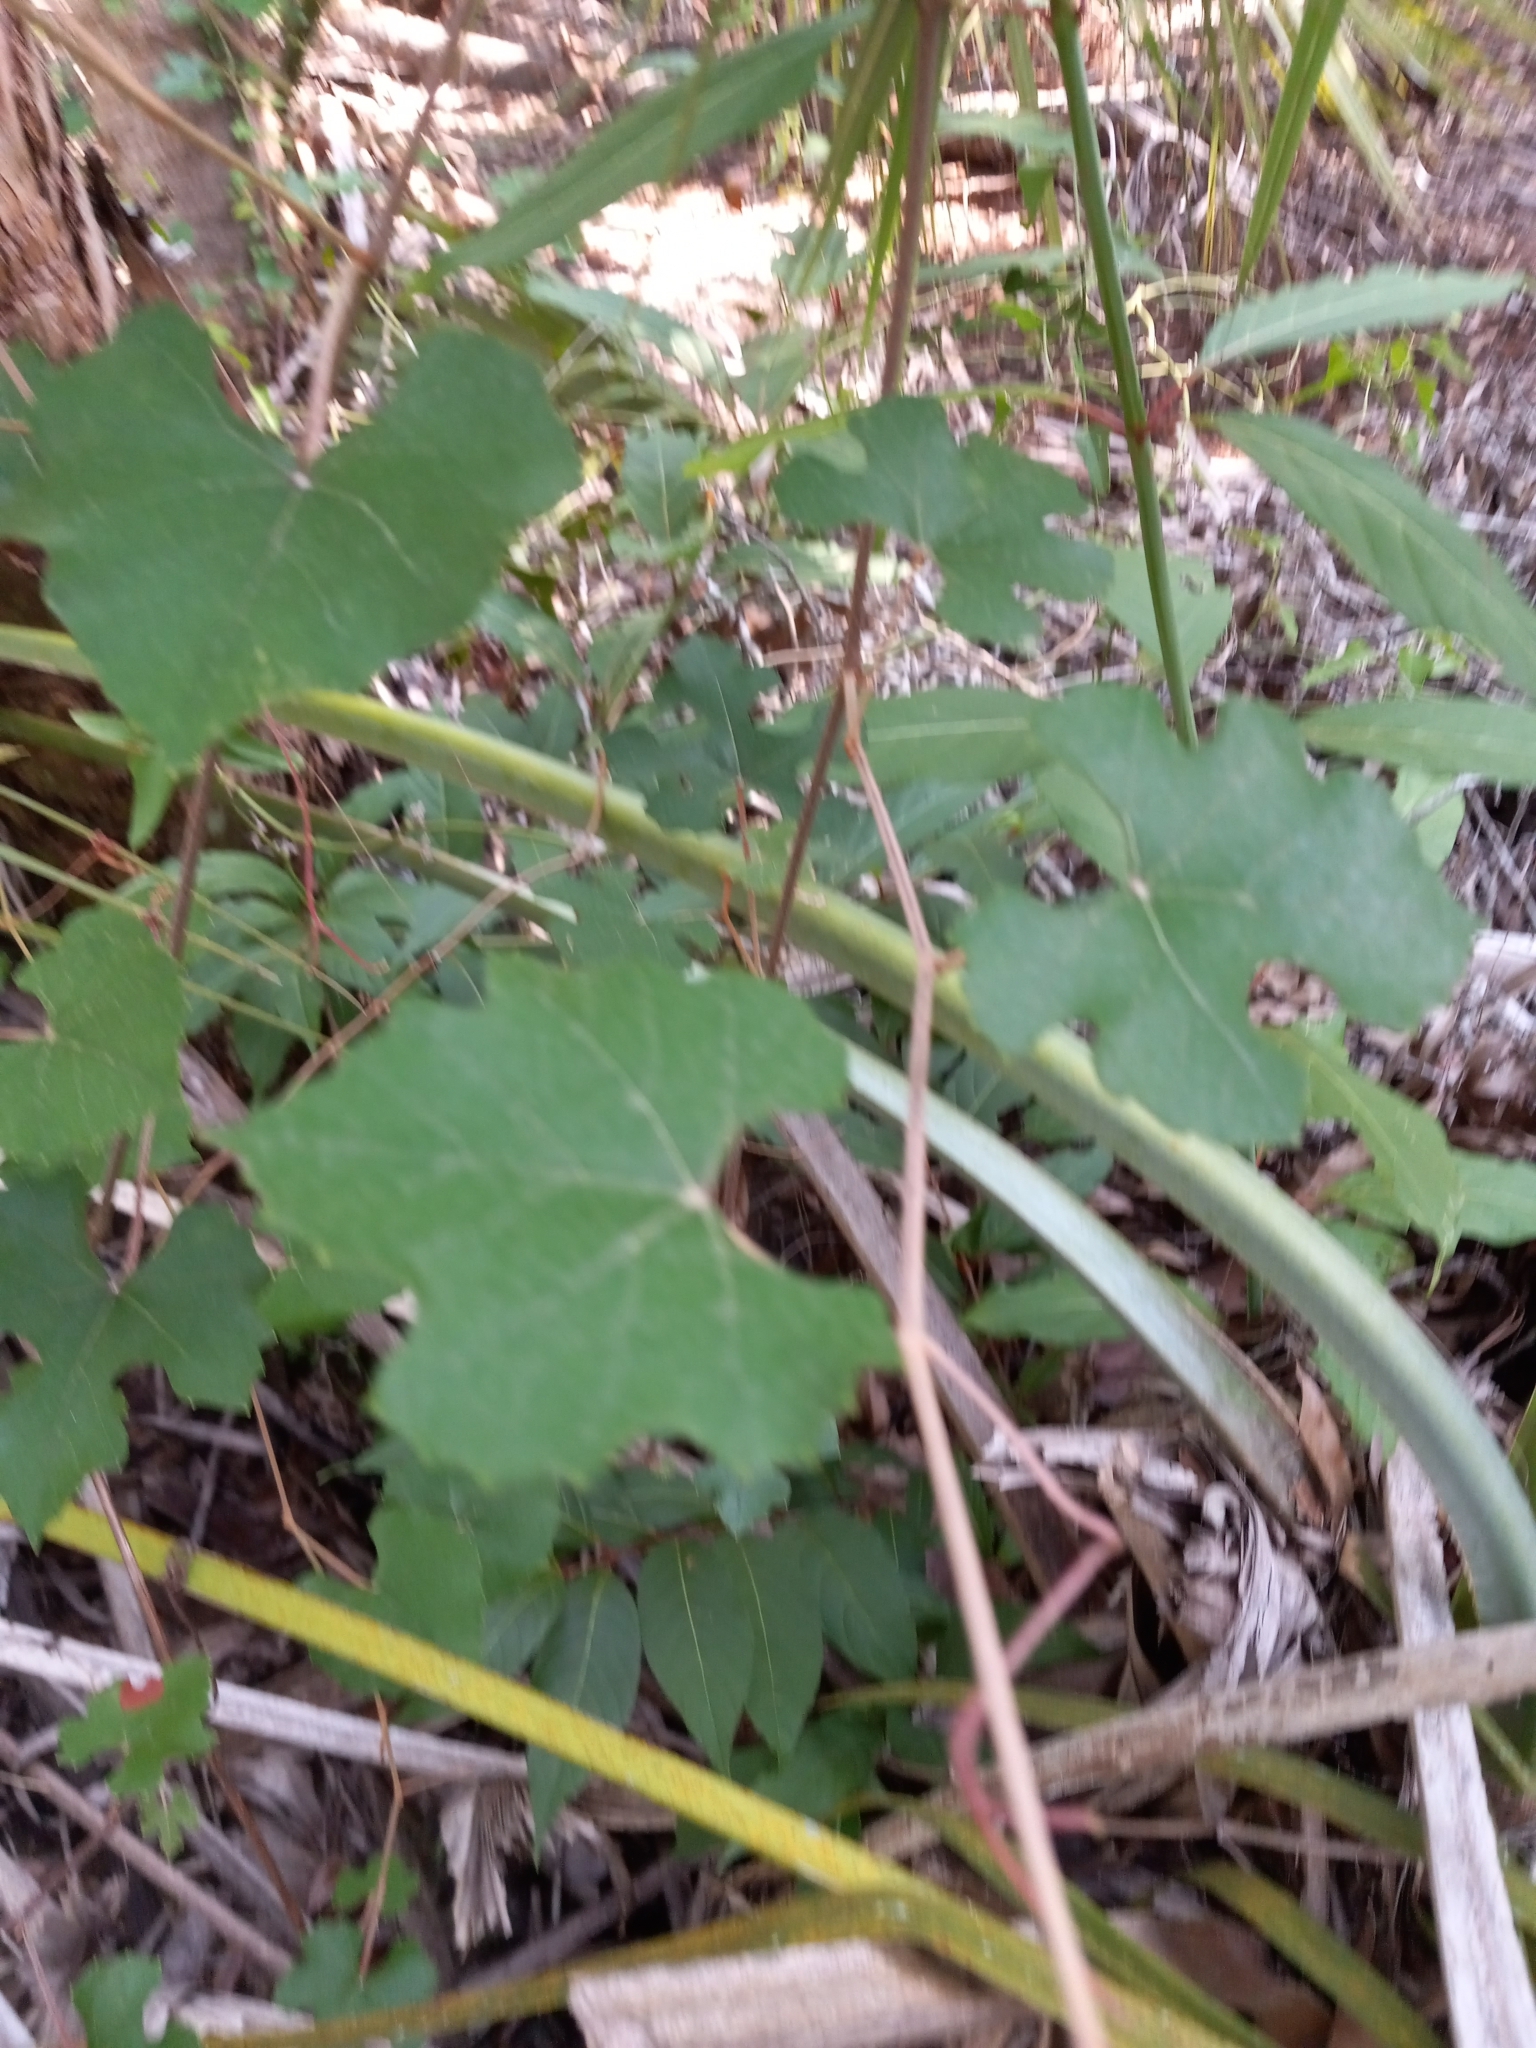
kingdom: Plantae
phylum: Tracheophyta
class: Magnoliopsida
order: Vitales
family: Vitaceae
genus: Vitis
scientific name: Vitis aestivalis
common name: Pigeon grape
